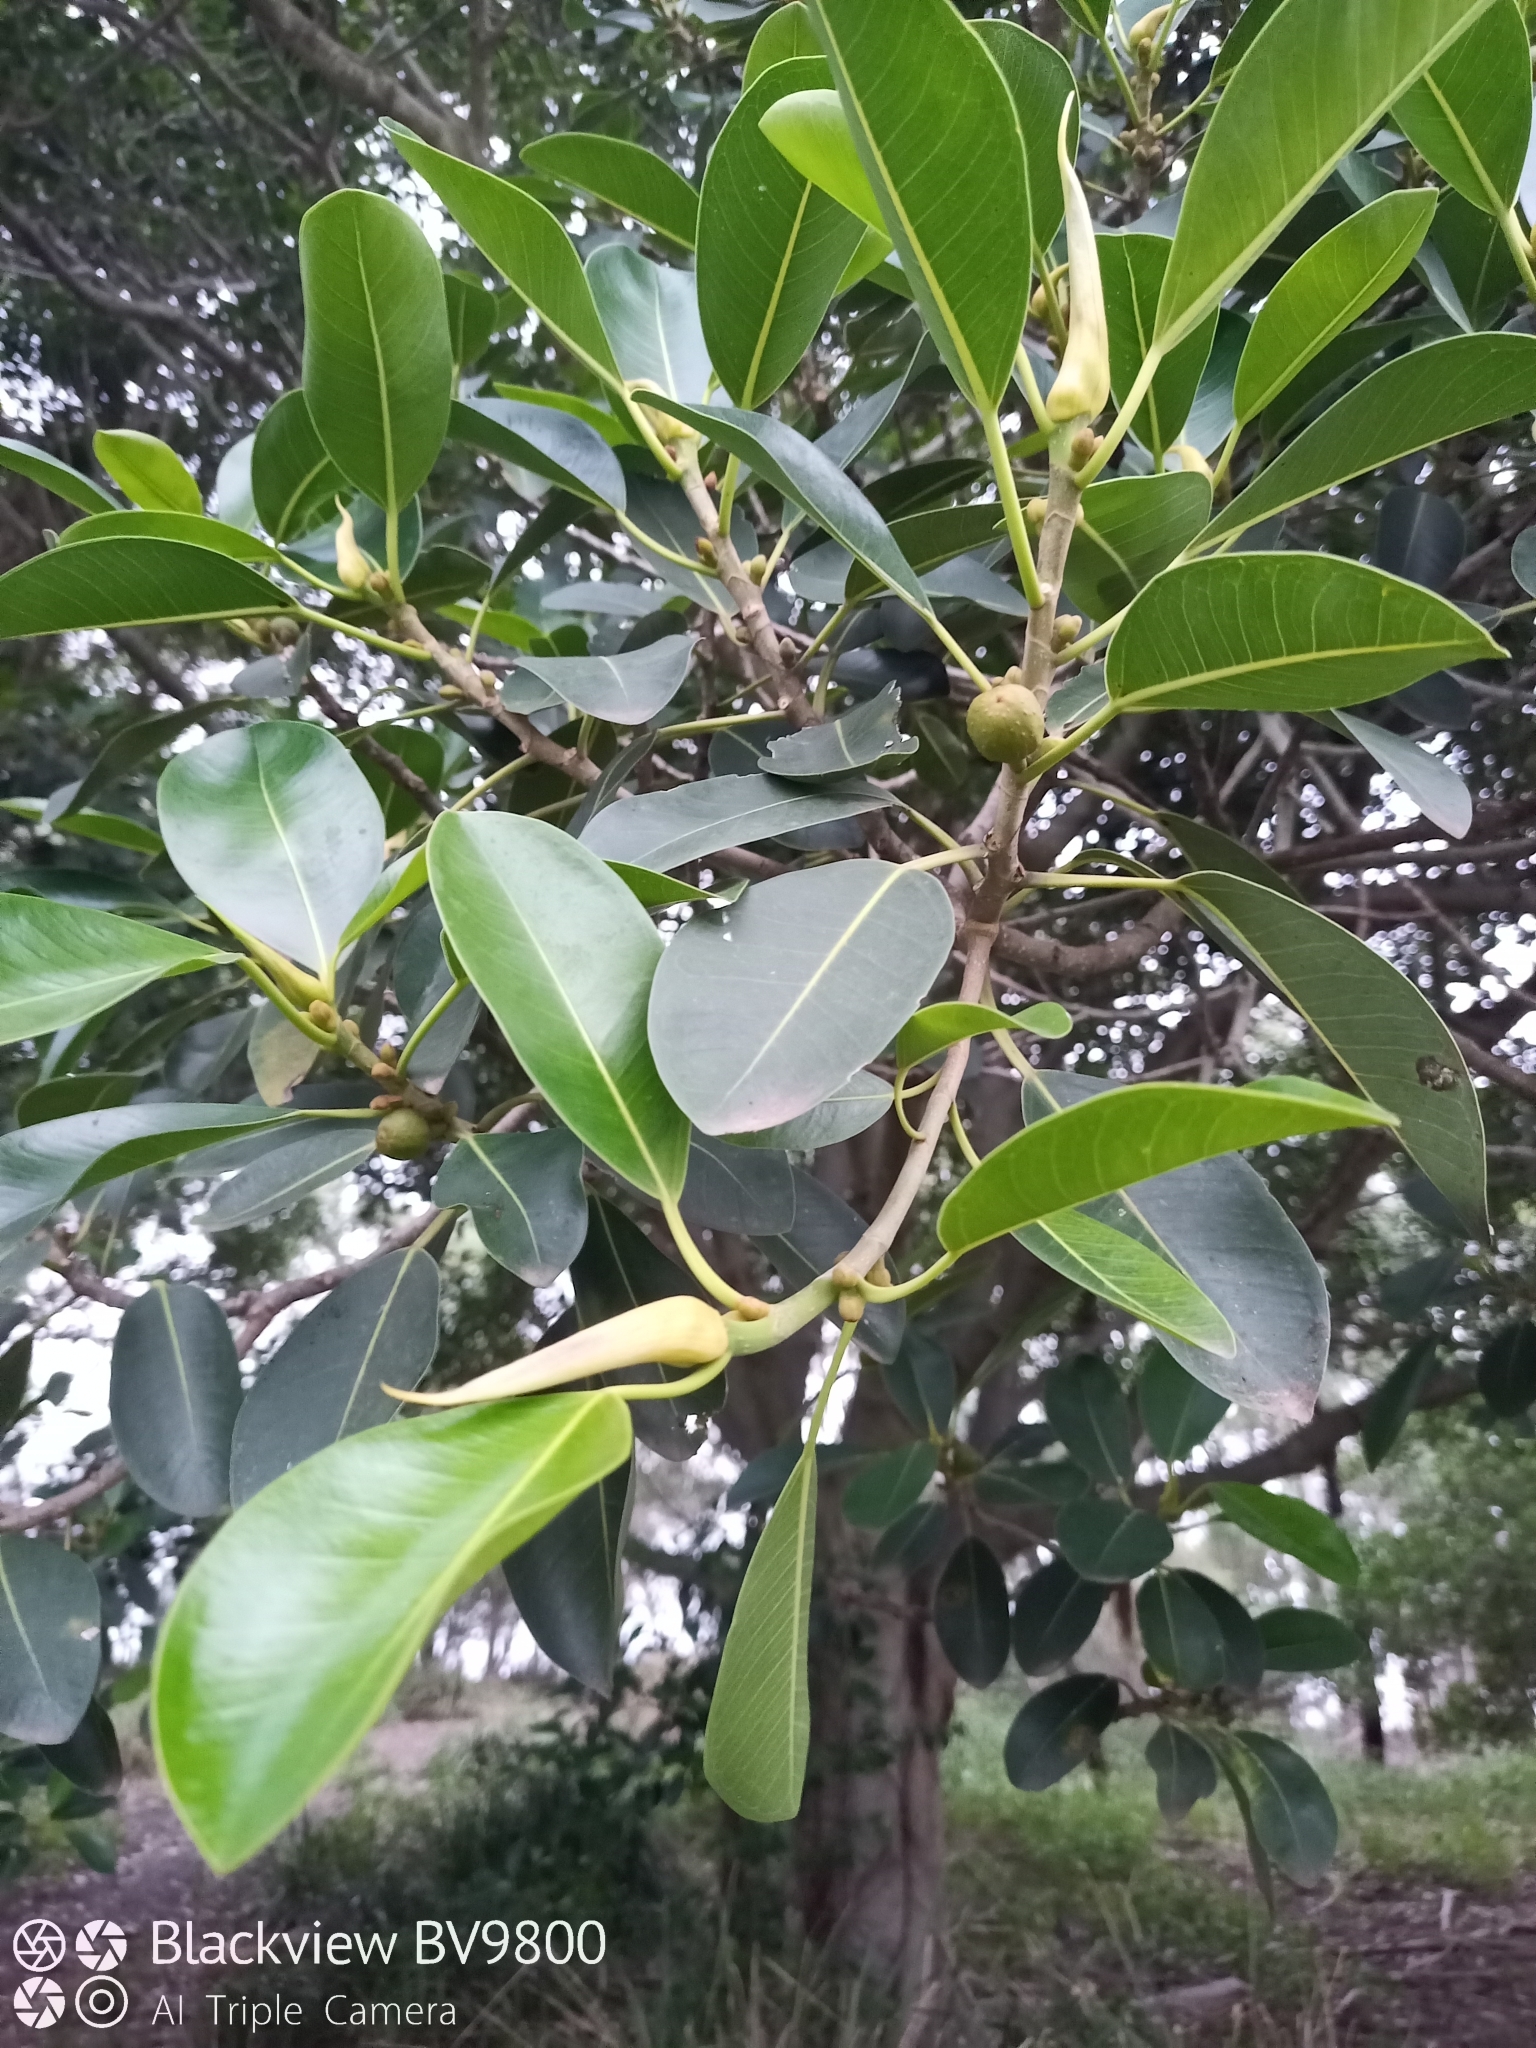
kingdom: Animalia
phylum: Chordata
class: Aves
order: Passeriformes
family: Meliphagidae
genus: Manorina
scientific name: Manorina melanocephala
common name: Noisy miner
